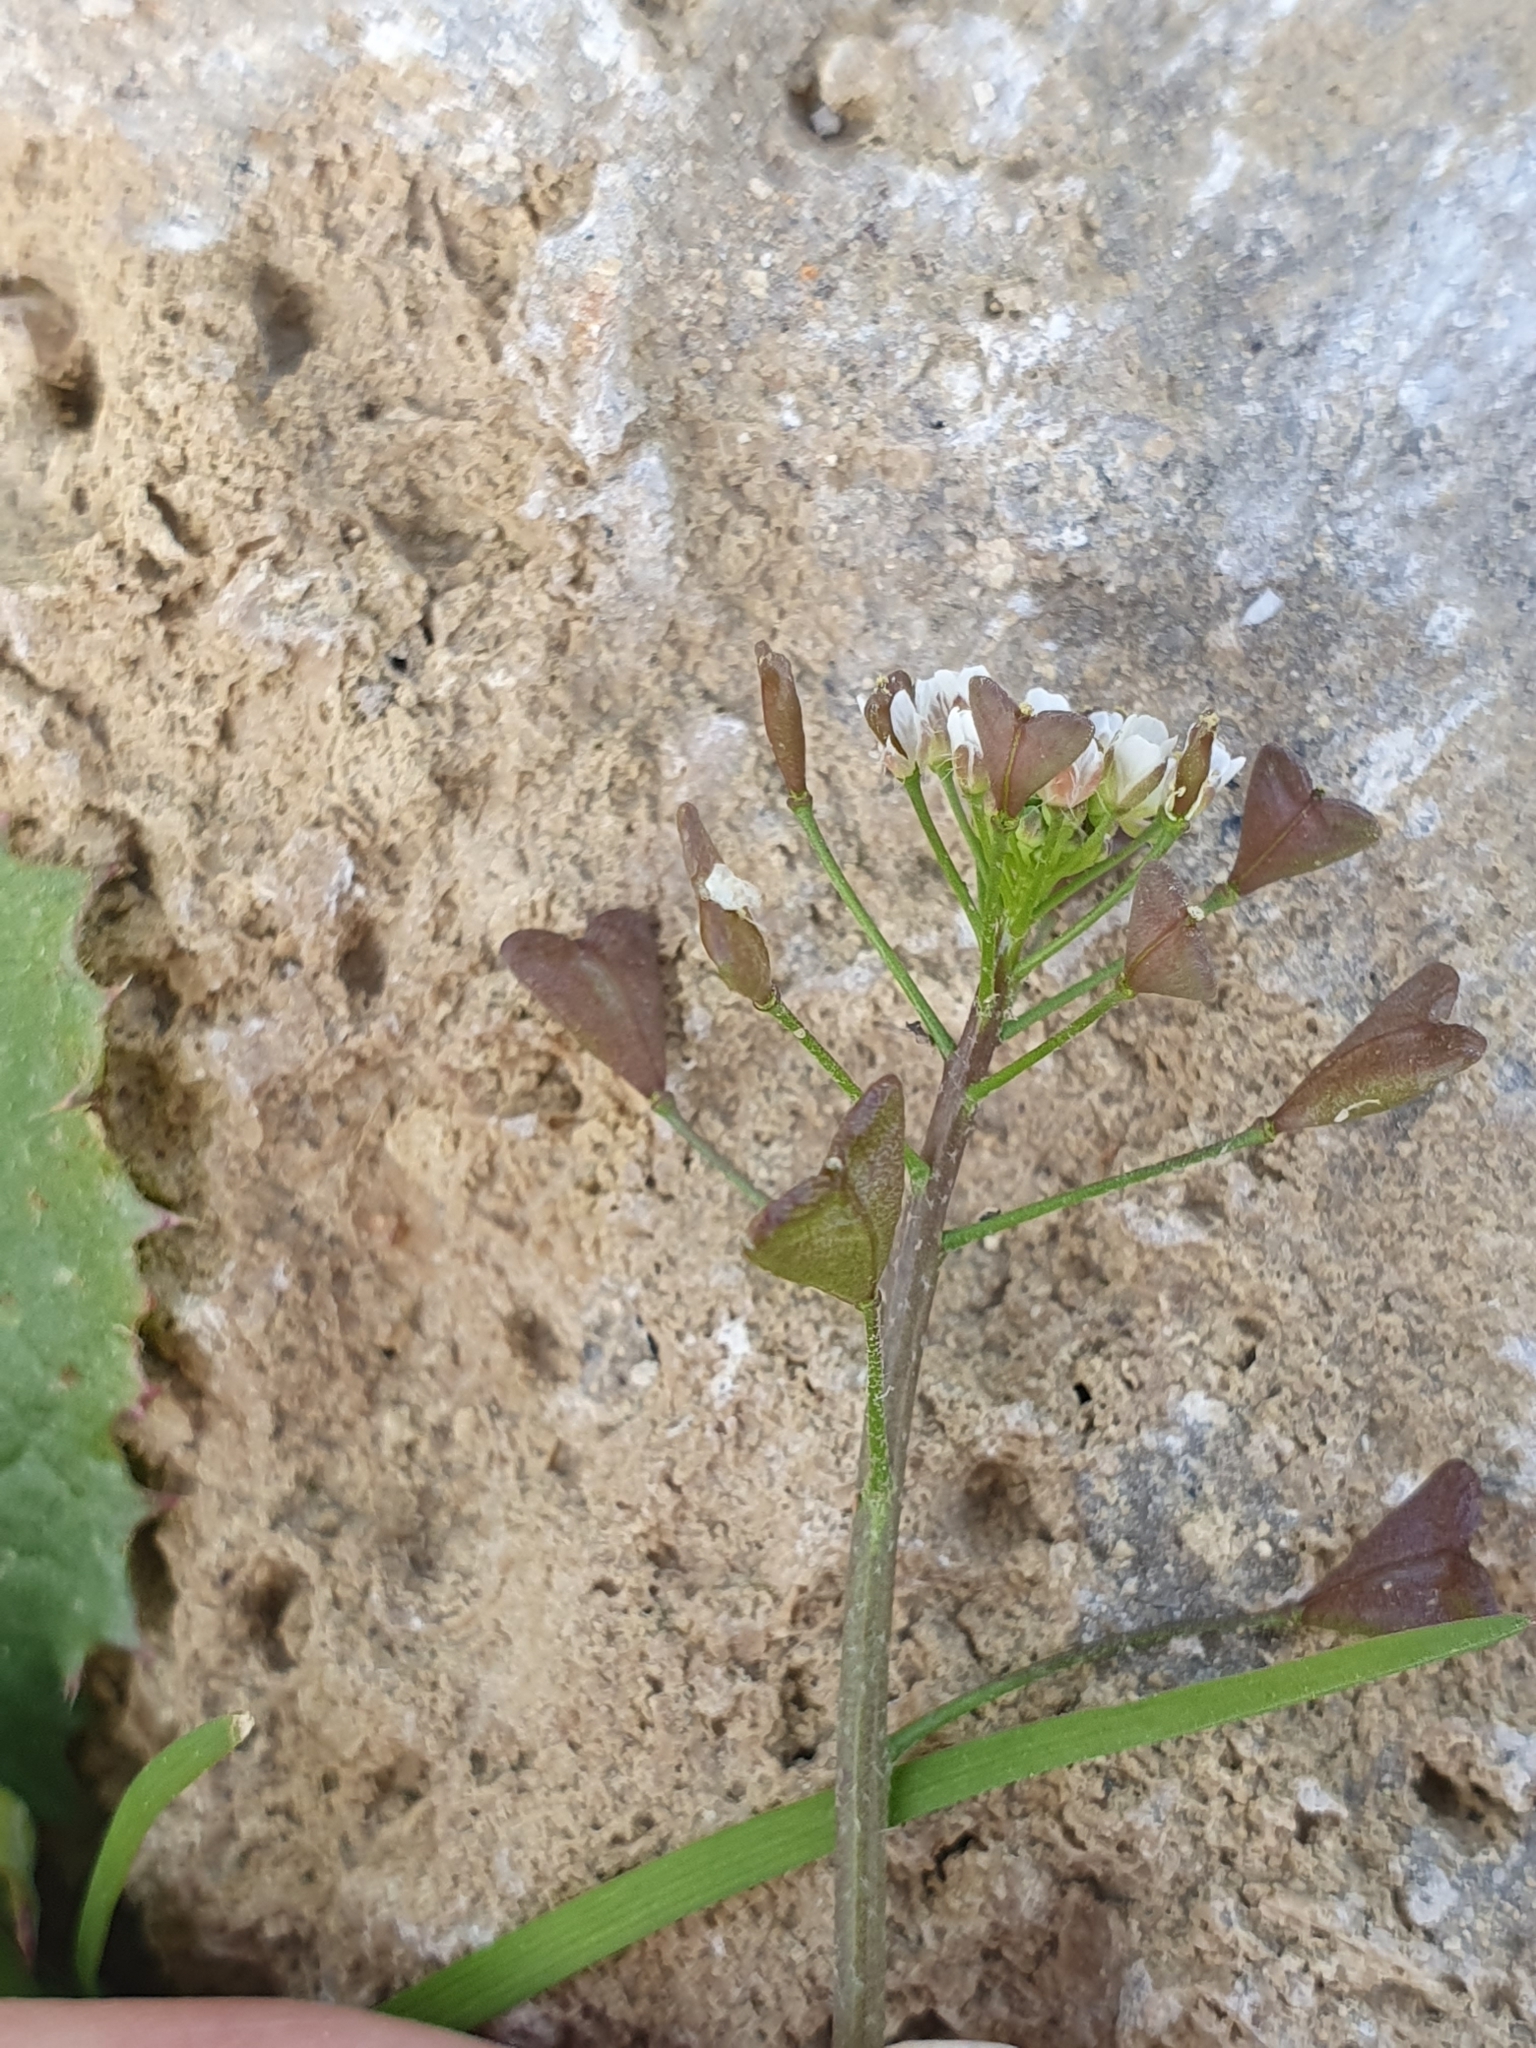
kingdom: Plantae
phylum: Tracheophyta
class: Magnoliopsida
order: Brassicales
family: Brassicaceae
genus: Capsella
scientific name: Capsella bursa-pastoris
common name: Shepherd's purse
